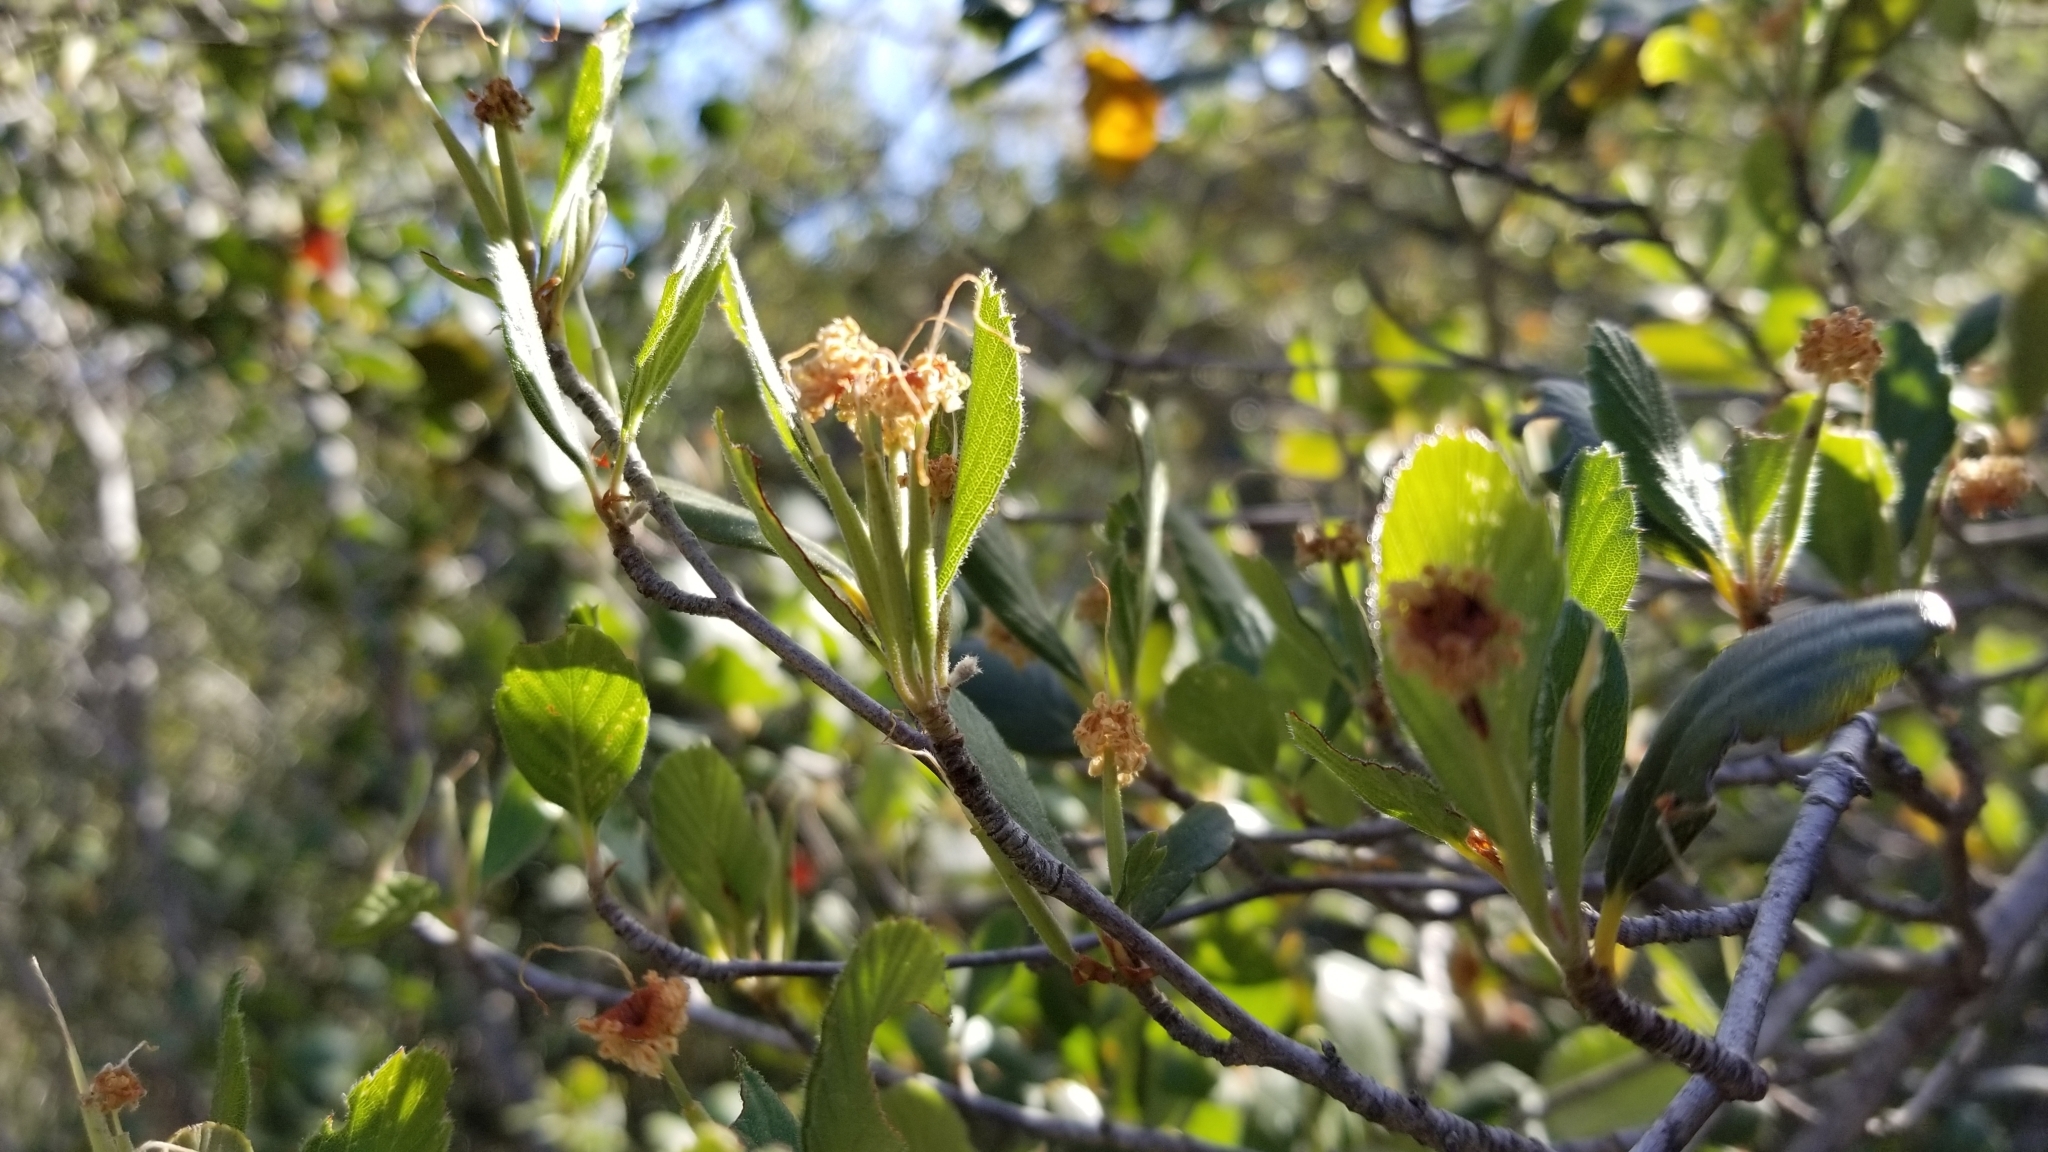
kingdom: Plantae
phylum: Tracheophyta
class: Magnoliopsida
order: Rosales
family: Rosaceae
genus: Cercocarpus
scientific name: Cercocarpus betuloides
